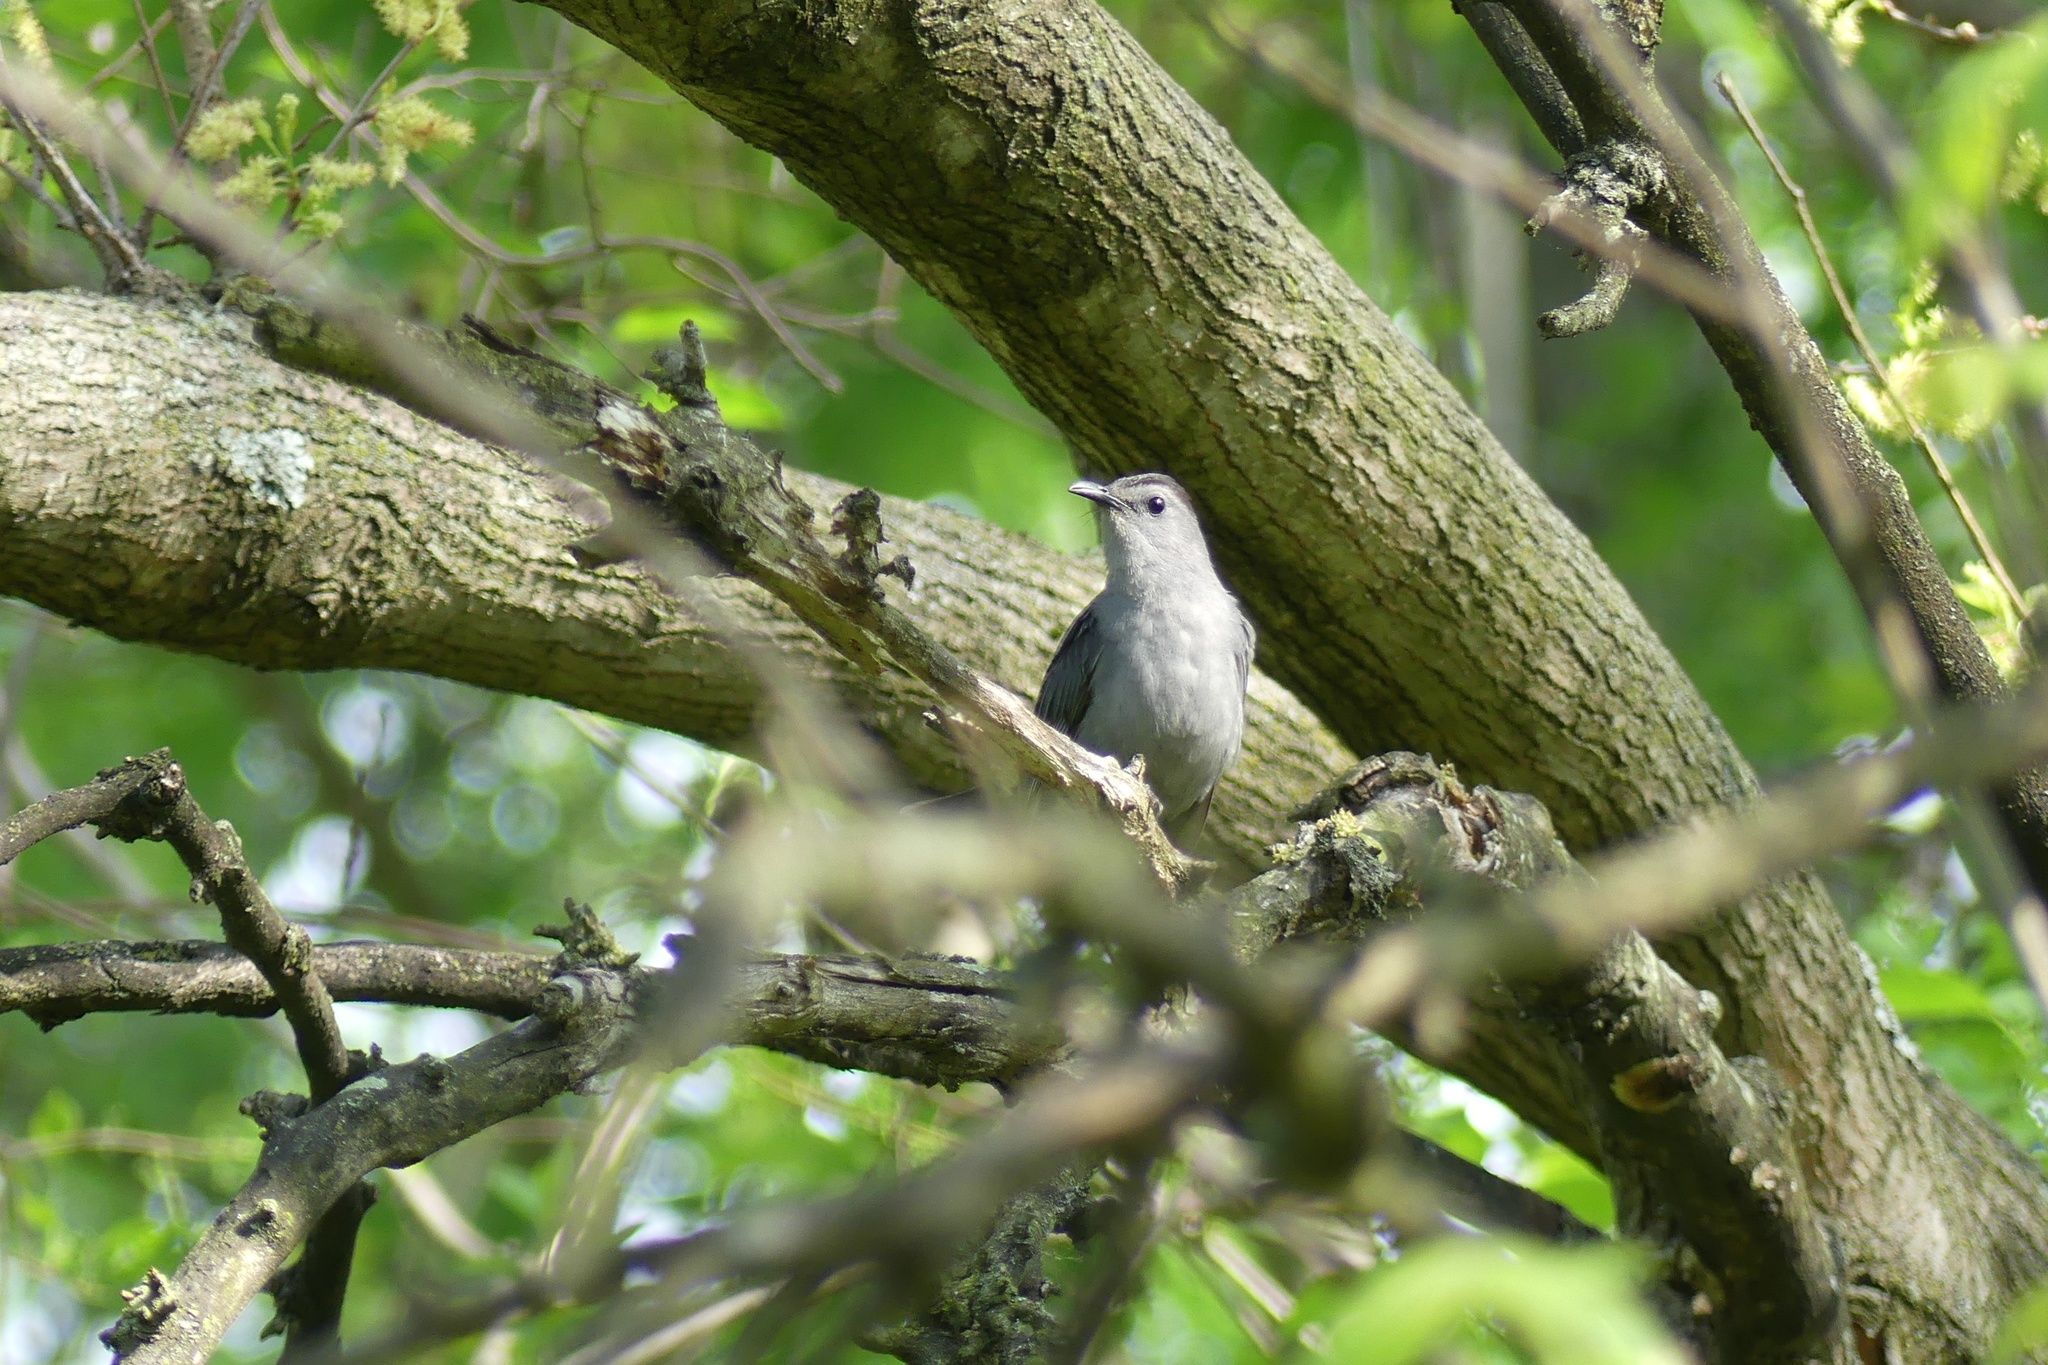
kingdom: Animalia
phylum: Chordata
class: Aves
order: Passeriformes
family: Mimidae
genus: Dumetella
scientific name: Dumetella carolinensis
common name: Gray catbird
